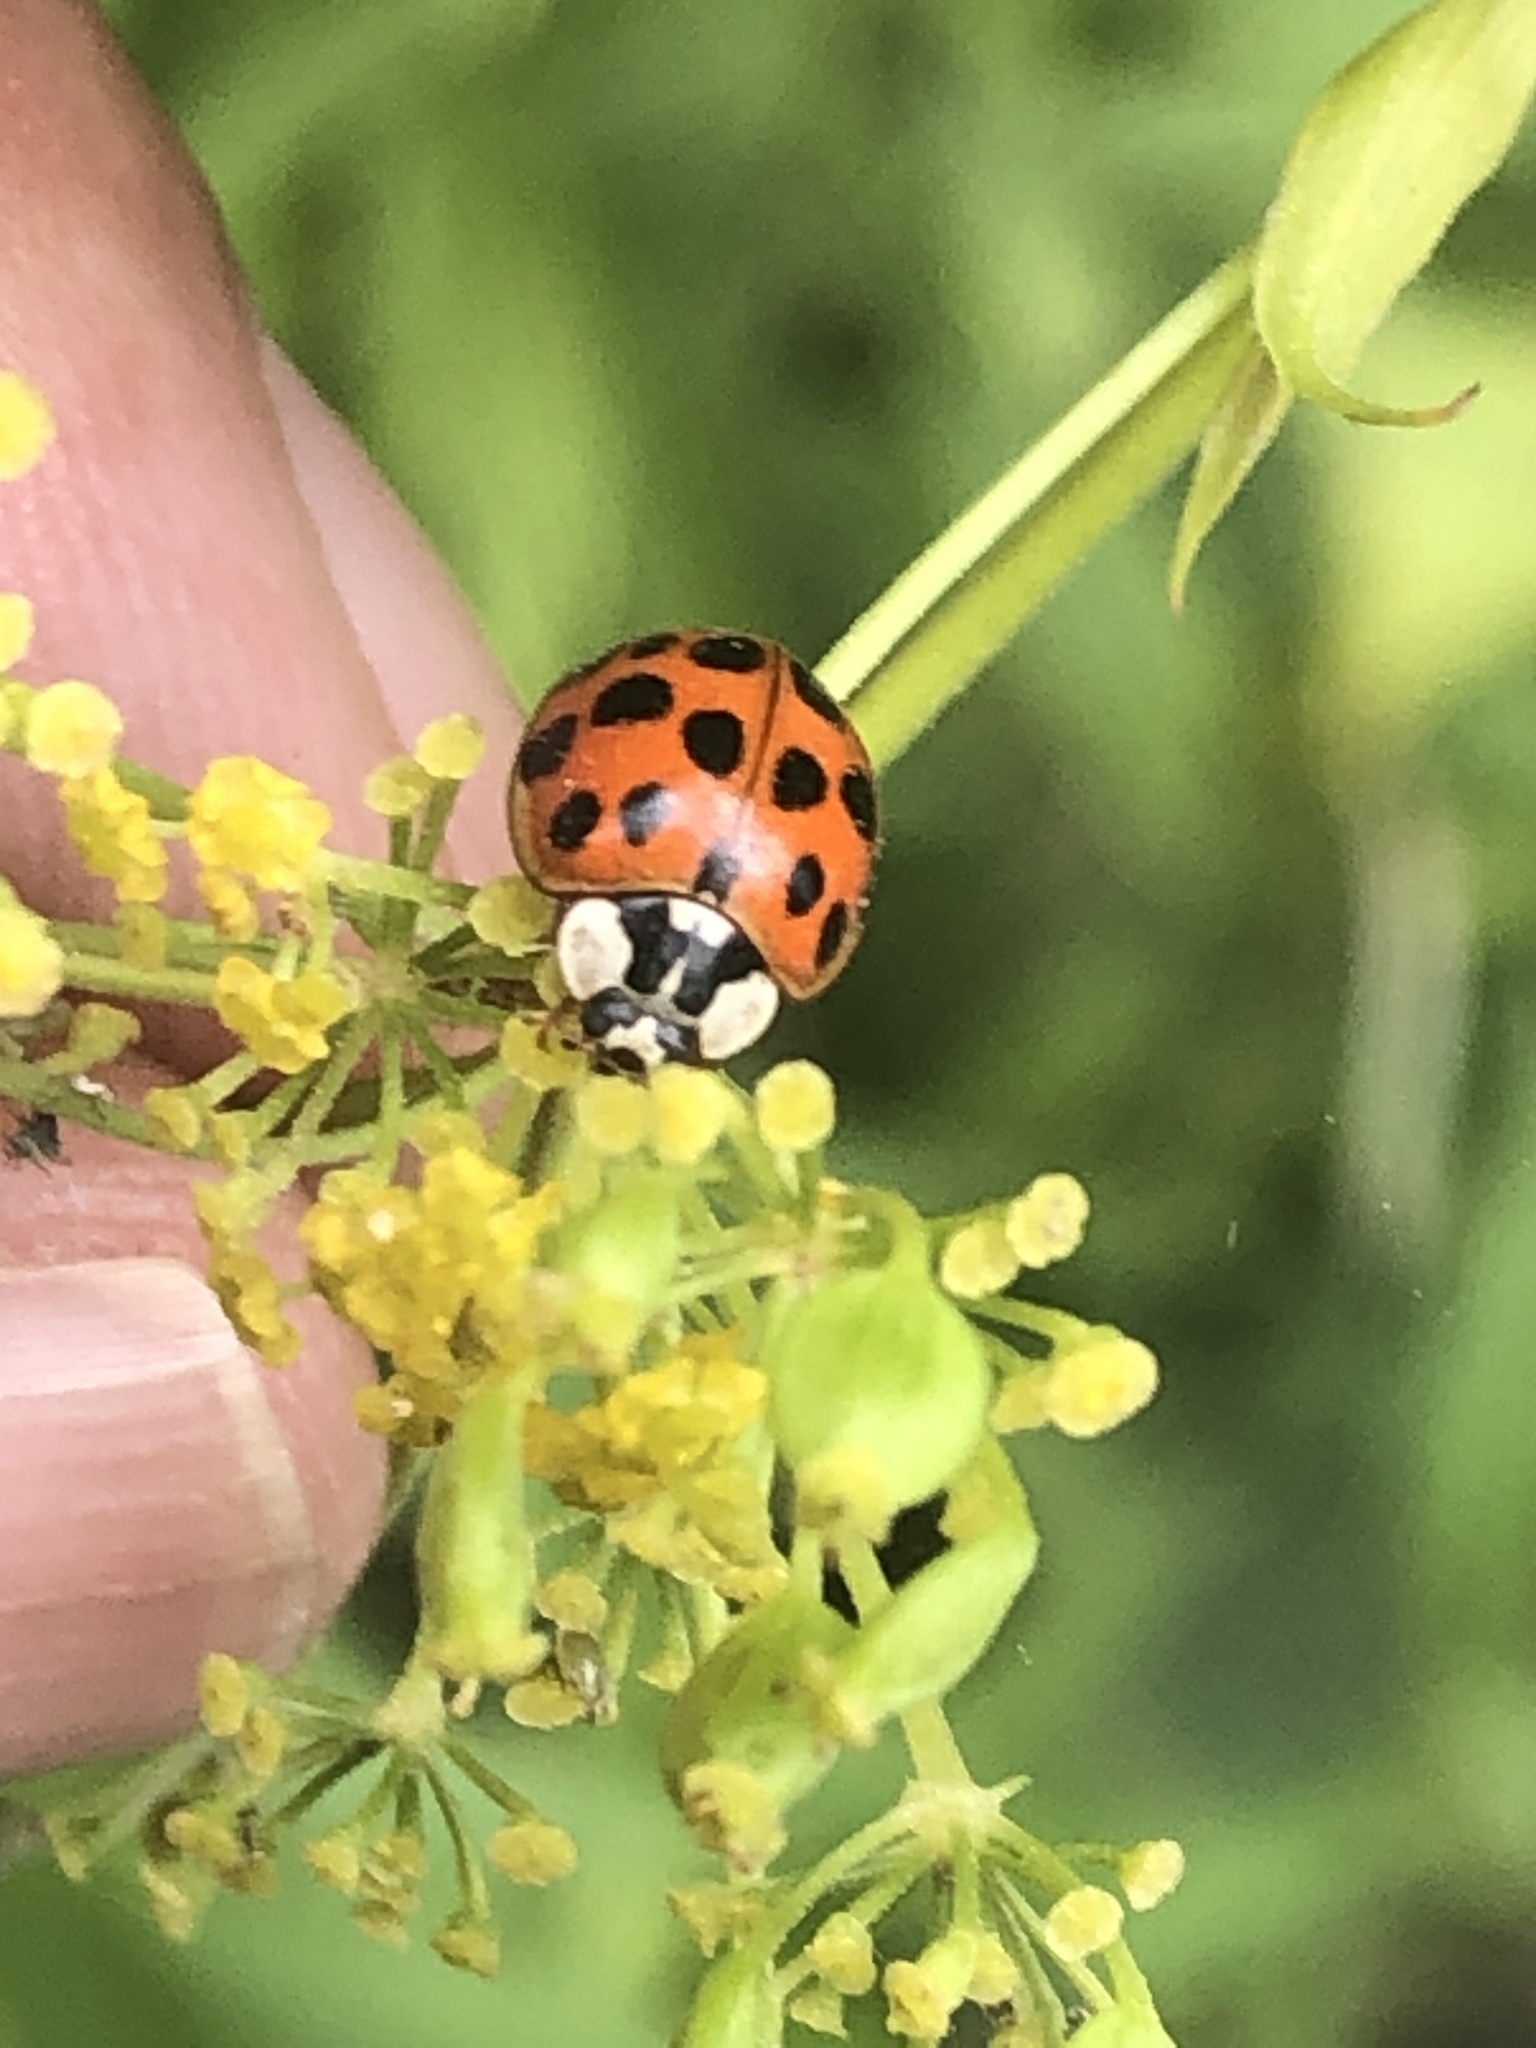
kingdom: Animalia
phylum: Arthropoda
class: Insecta
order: Coleoptera
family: Coccinellidae
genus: Harmonia
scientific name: Harmonia axyridis
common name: Harlequin ladybird
